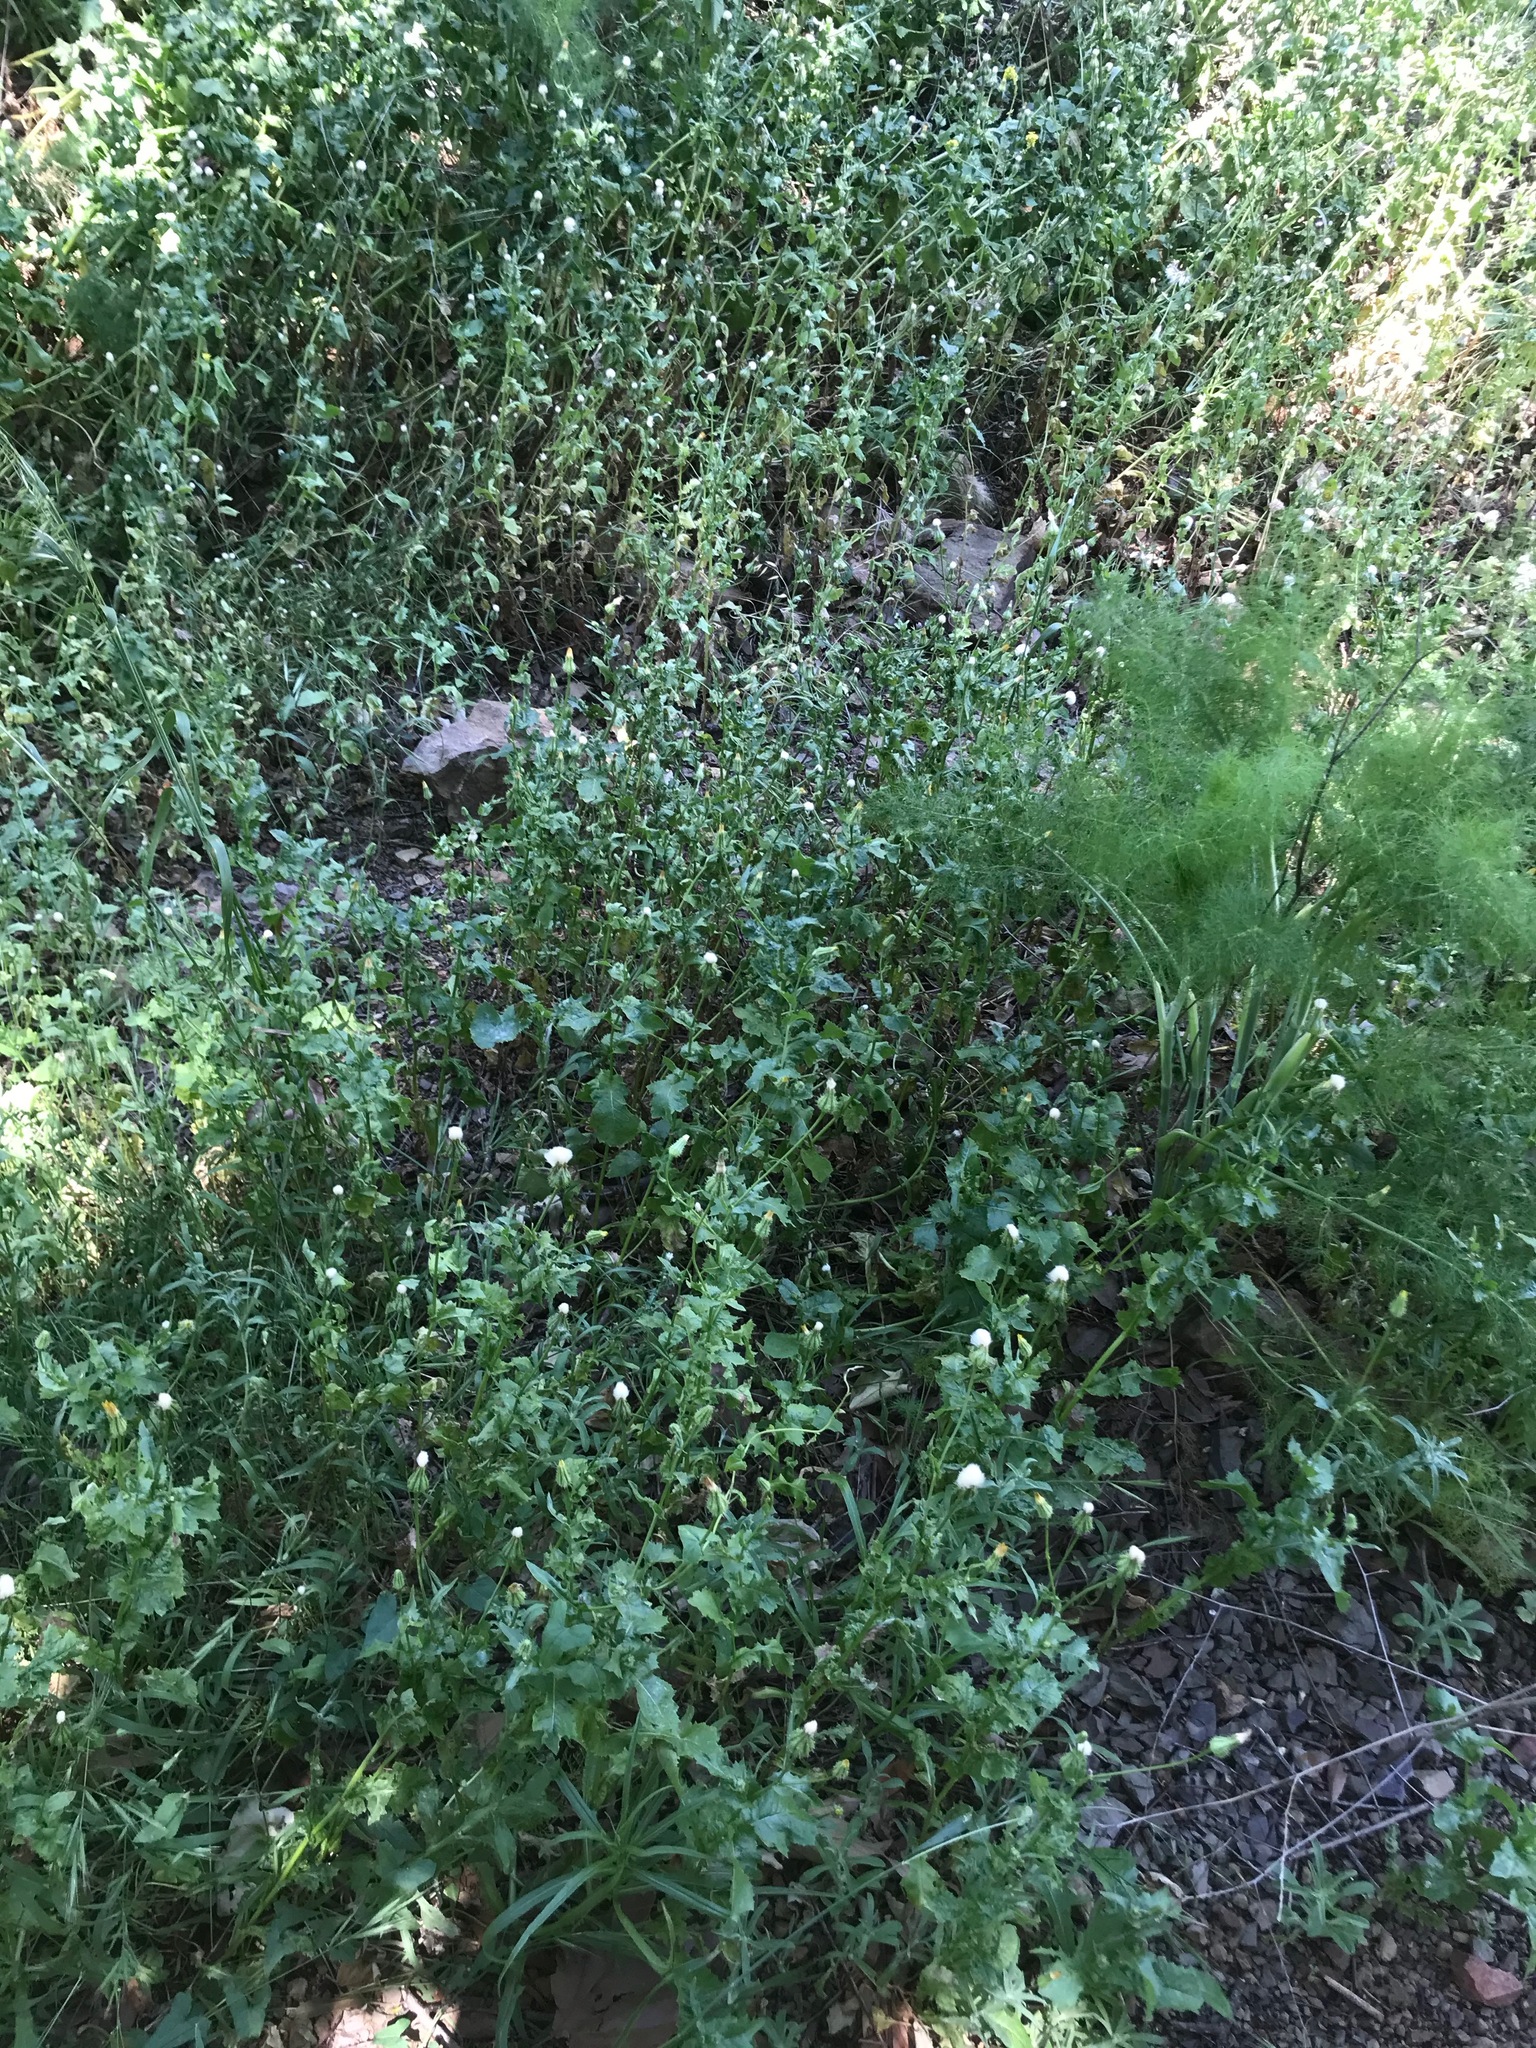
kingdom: Plantae
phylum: Tracheophyta
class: Magnoliopsida
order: Asterales
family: Asteraceae
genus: Urospermum
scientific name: Urospermum picroides
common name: False hawkbit
